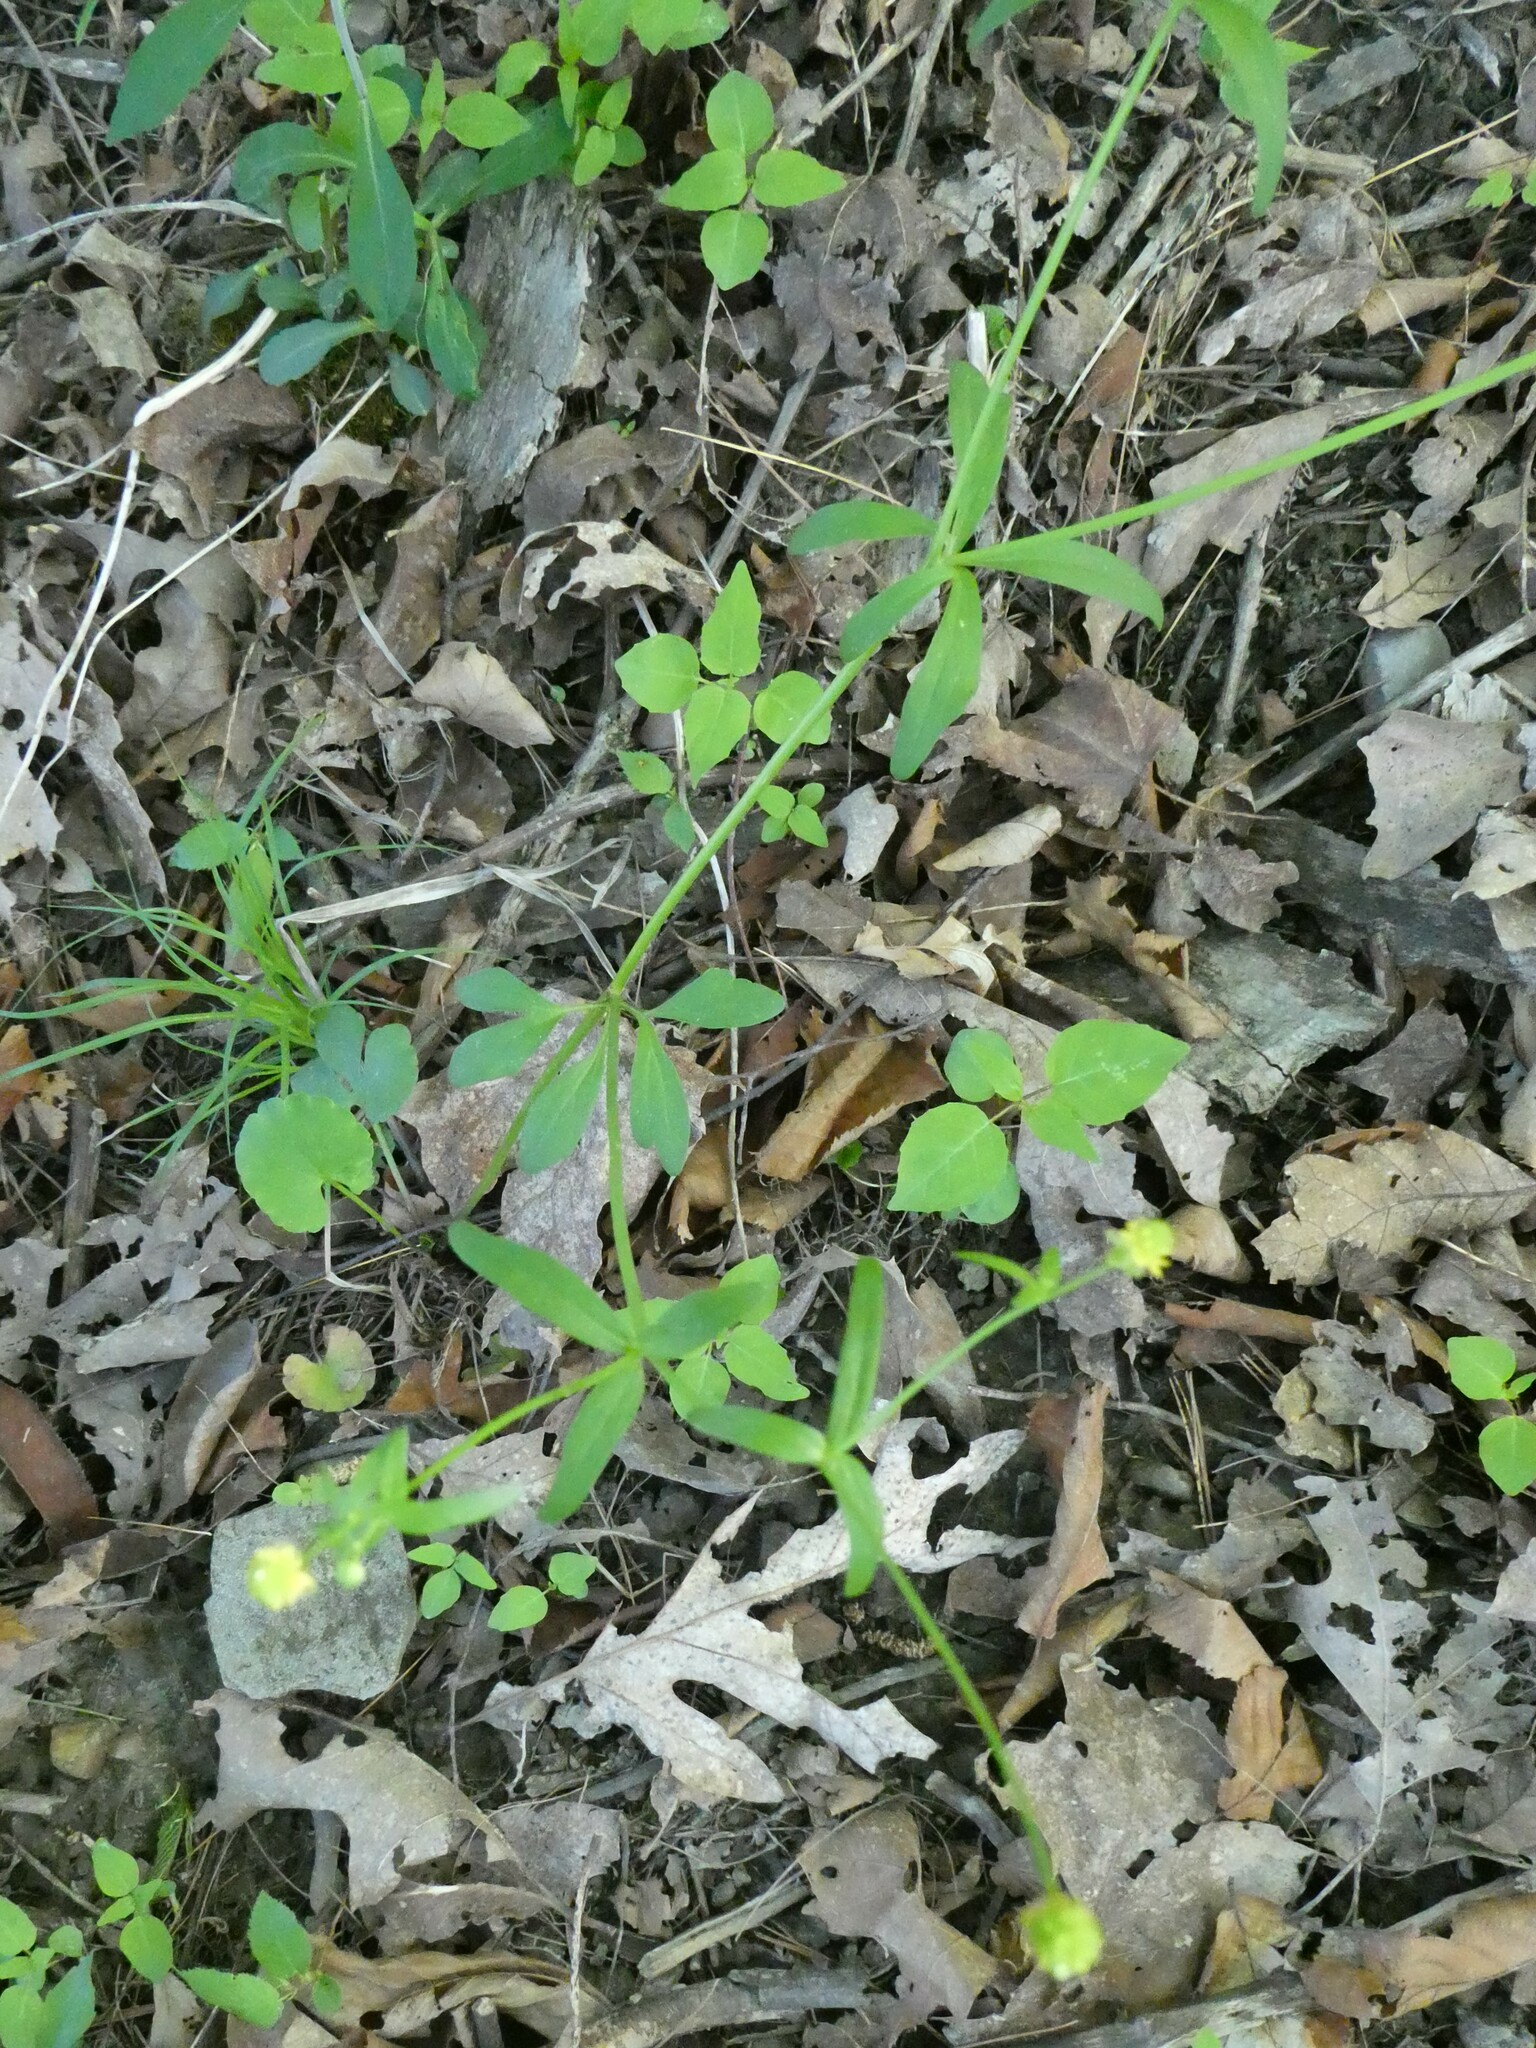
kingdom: Plantae
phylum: Tracheophyta
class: Magnoliopsida
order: Ranunculales
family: Ranunculaceae
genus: Ranunculus
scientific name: Ranunculus abortivus
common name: Early wood buttercup
